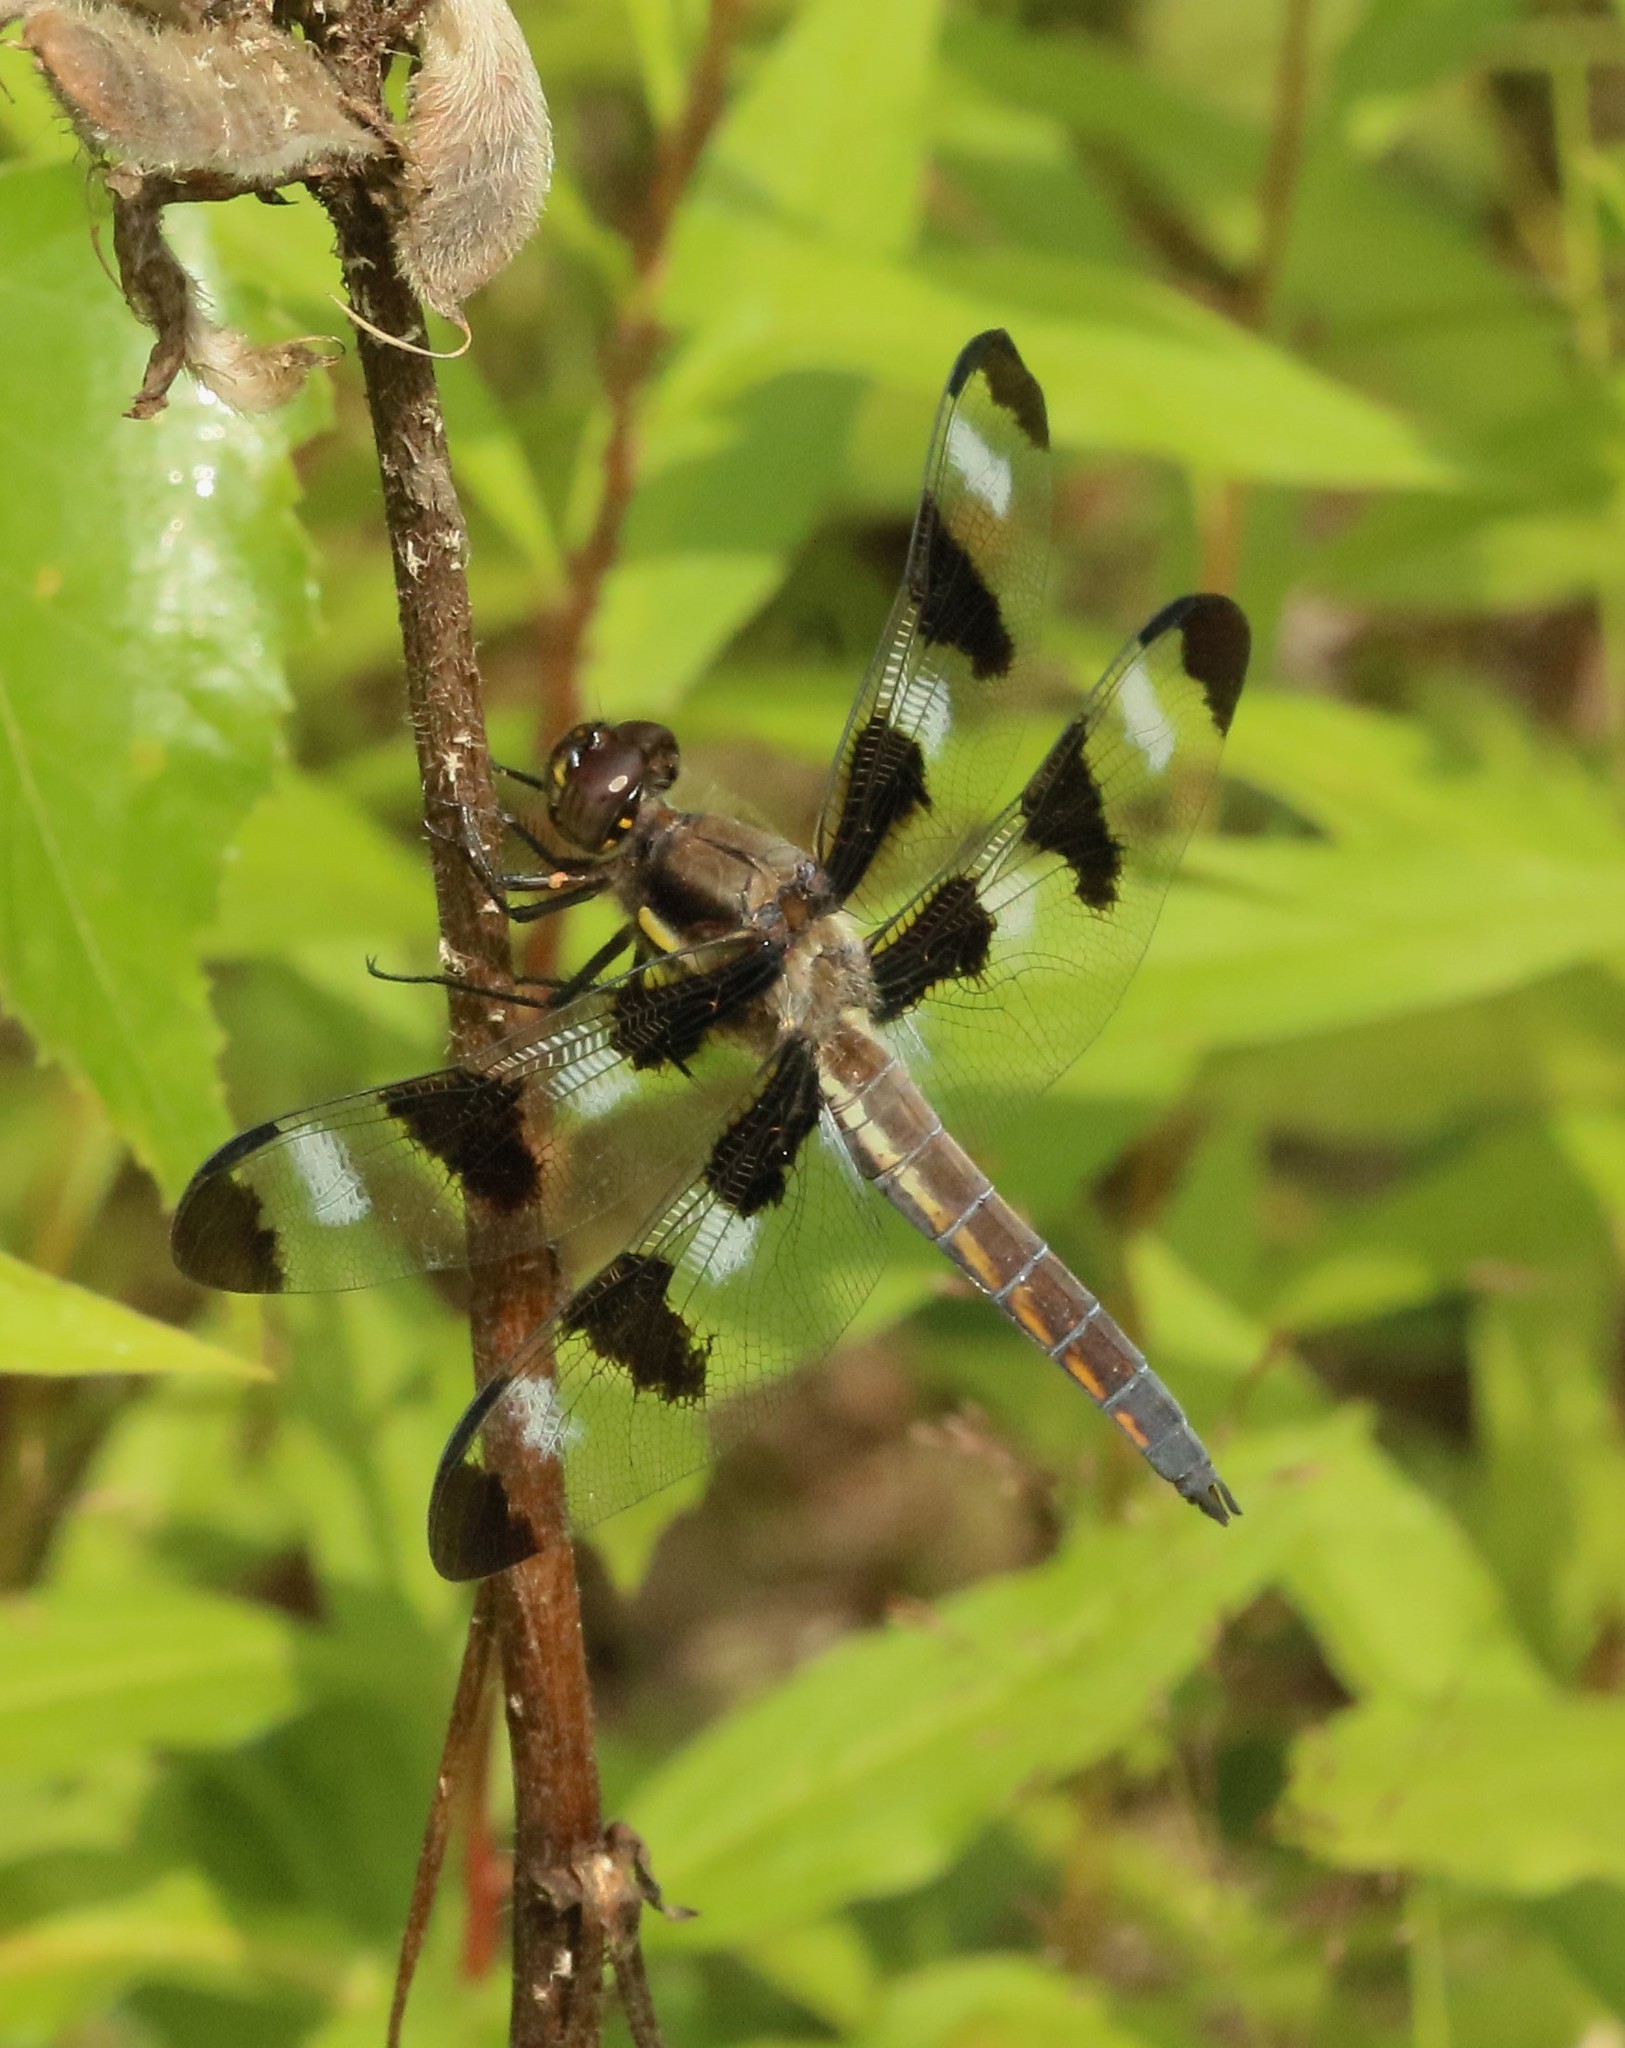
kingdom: Animalia
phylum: Arthropoda
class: Insecta
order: Odonata
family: Libellulidae
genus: Libellula
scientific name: Libellula pulchella
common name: Twelve-spotted skimmer
